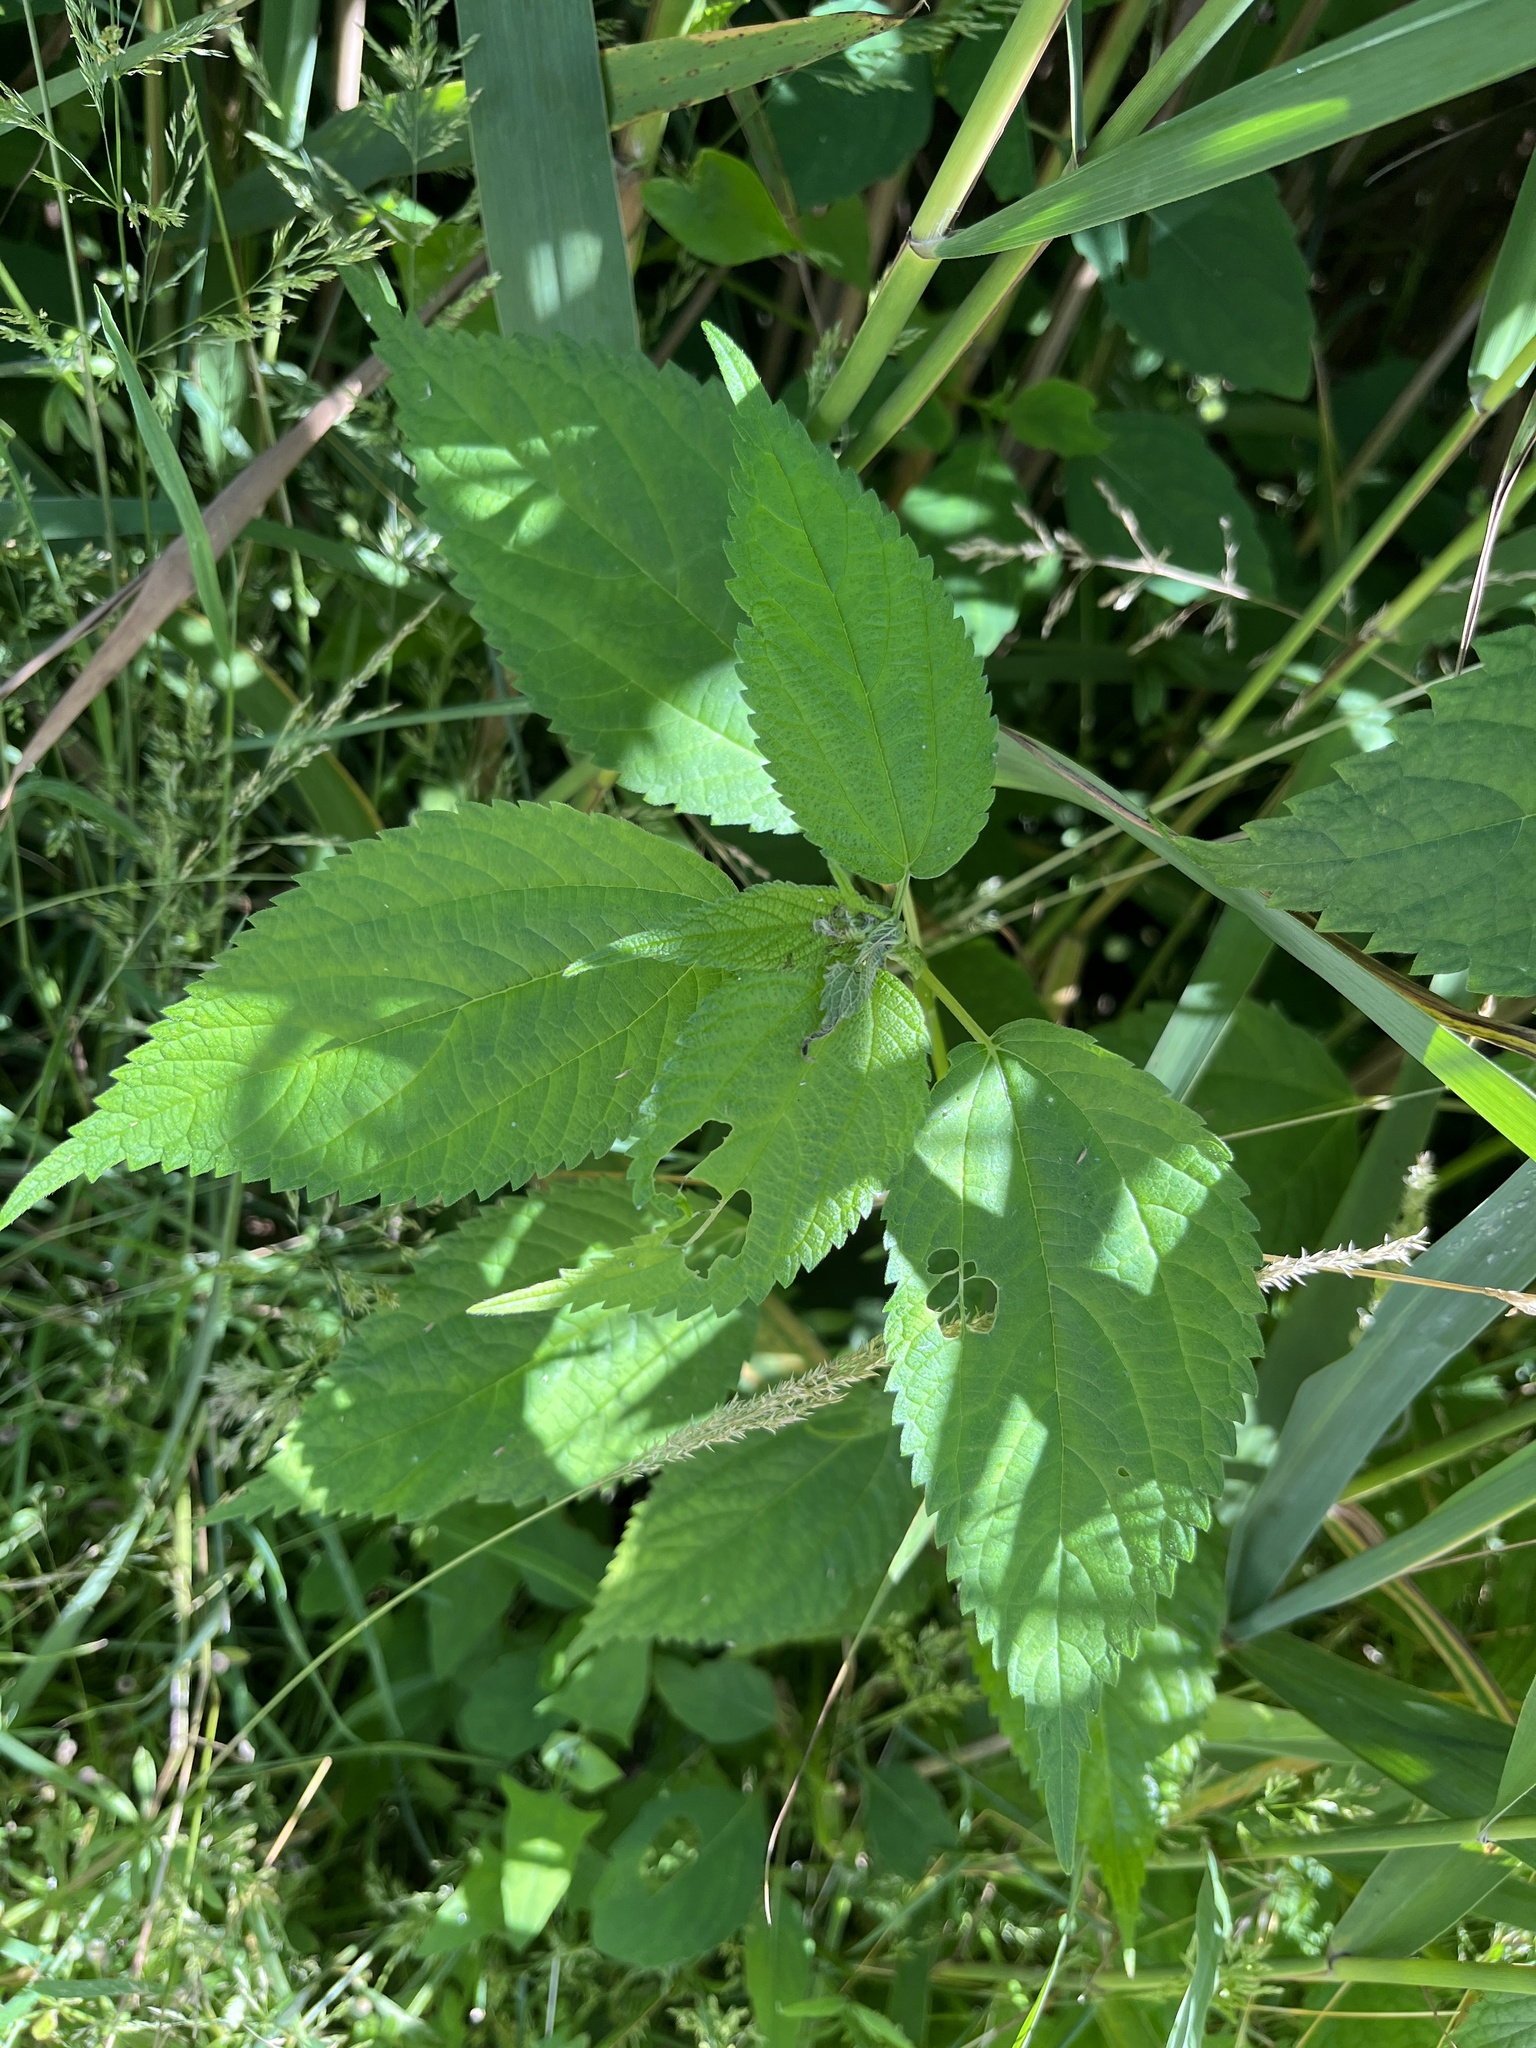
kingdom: Plantae
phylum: Tracheophyta
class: Magnoliopsida
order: Rosales
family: Urticaceae
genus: Boehmeria
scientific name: Boehmeria cylindrica
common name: Bog-hemp
